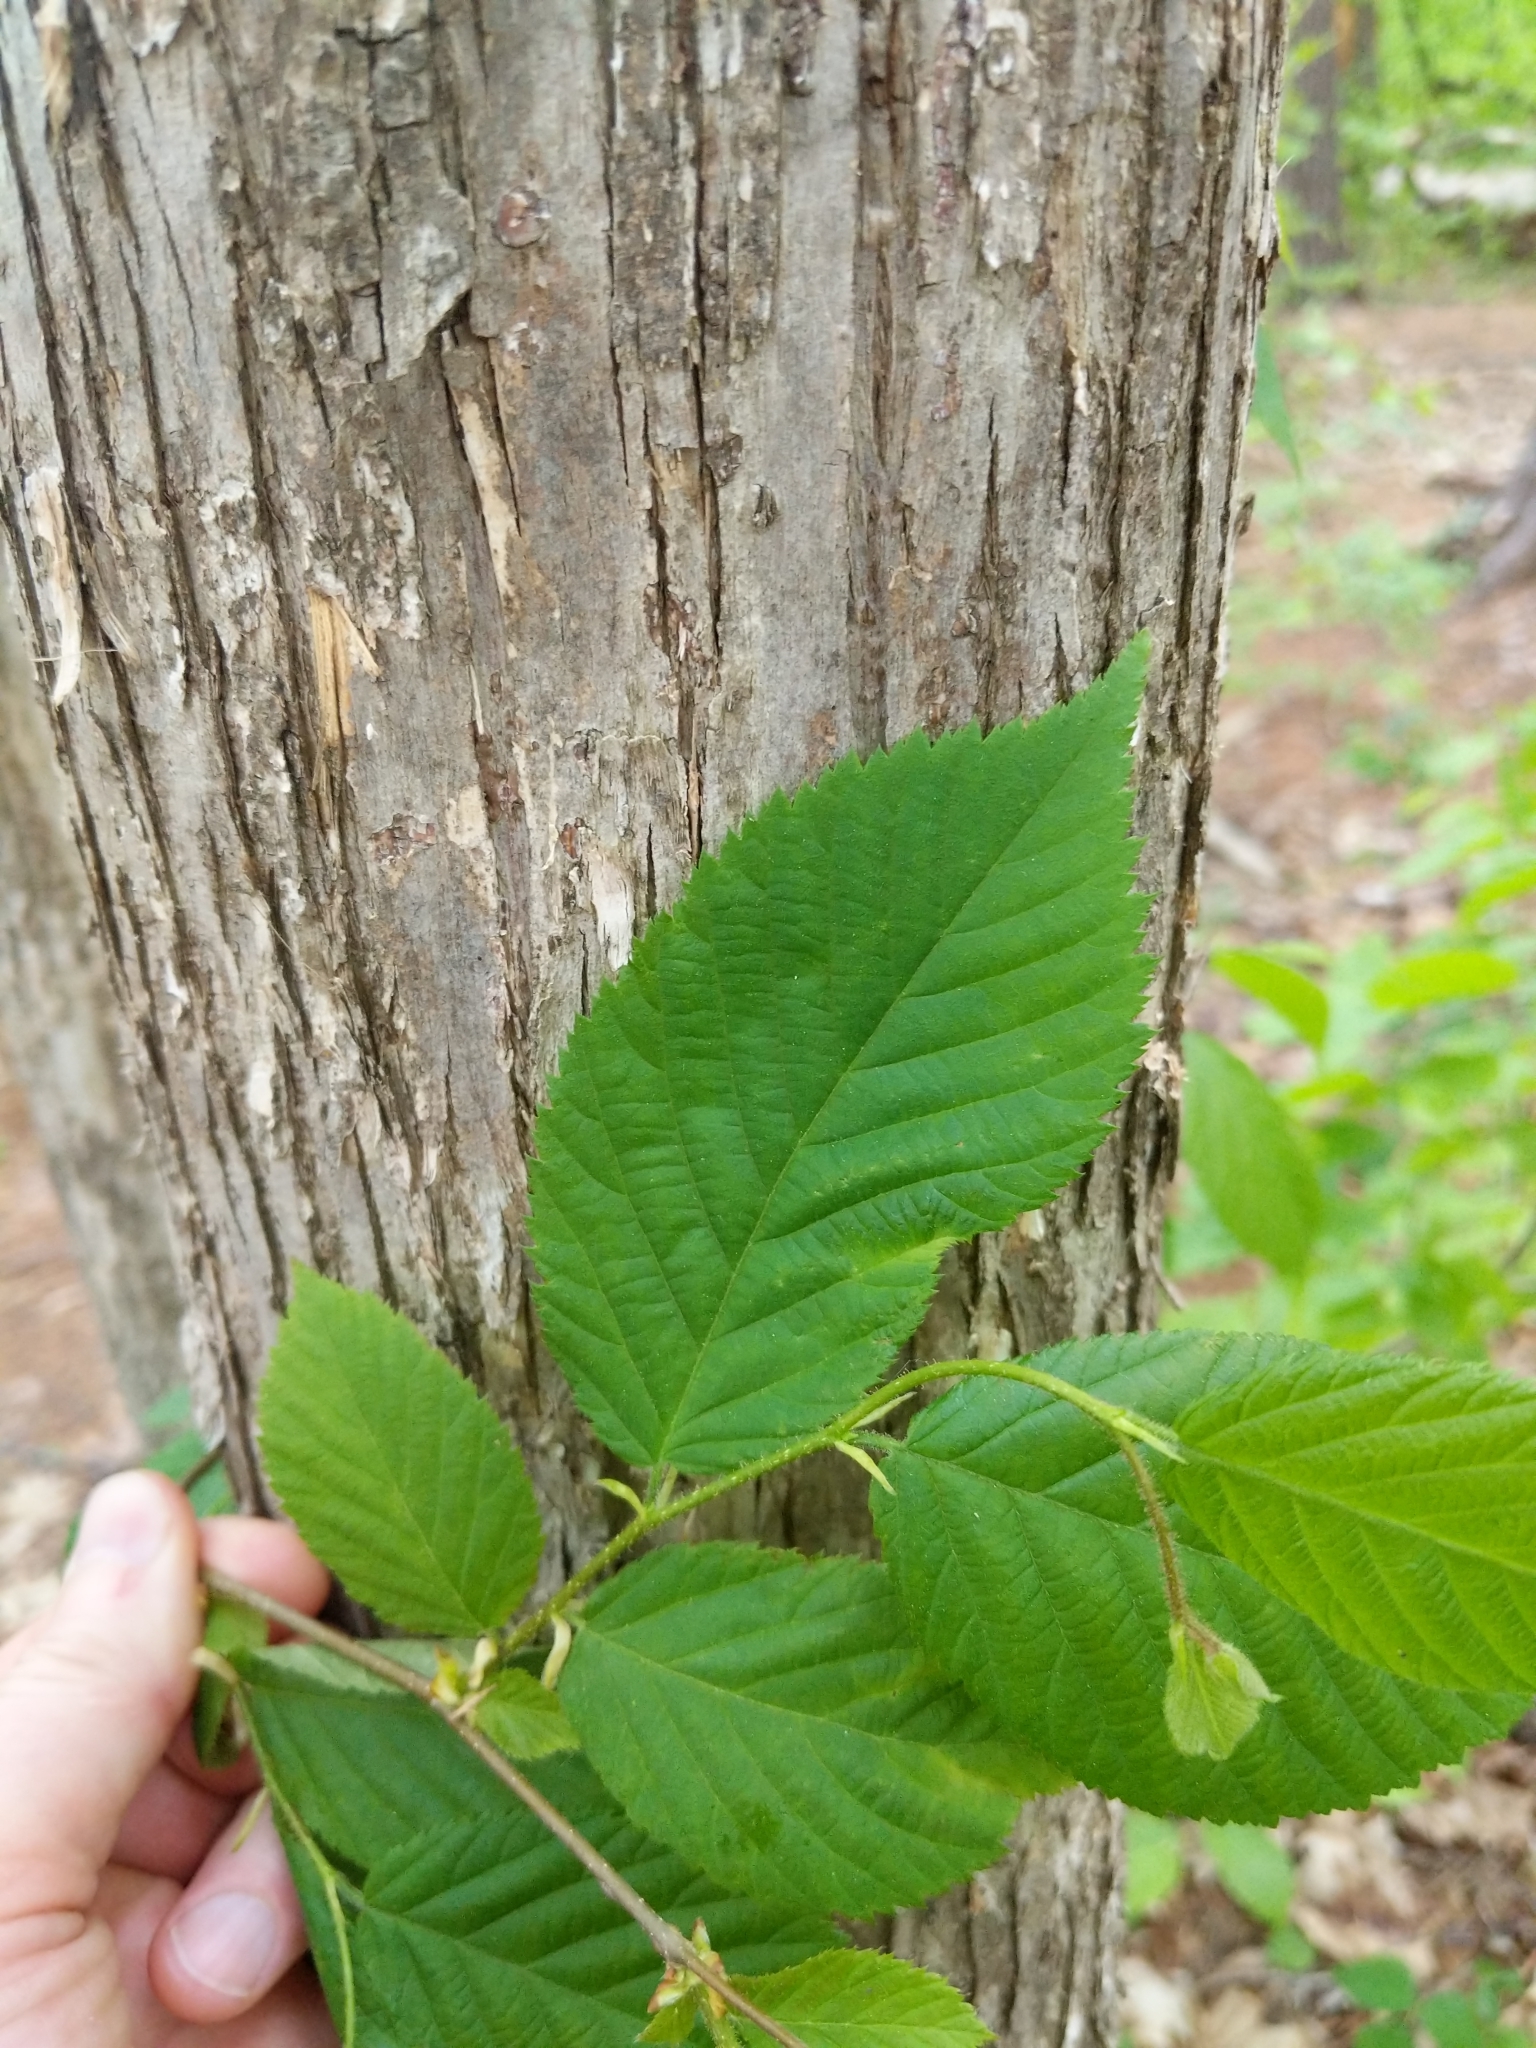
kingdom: Plantae
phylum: Tracheophyta
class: Magnoliopsida
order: Fagales
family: Betulaceae
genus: Ostrya
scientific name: Ostrya virginiana
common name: Ironwood
